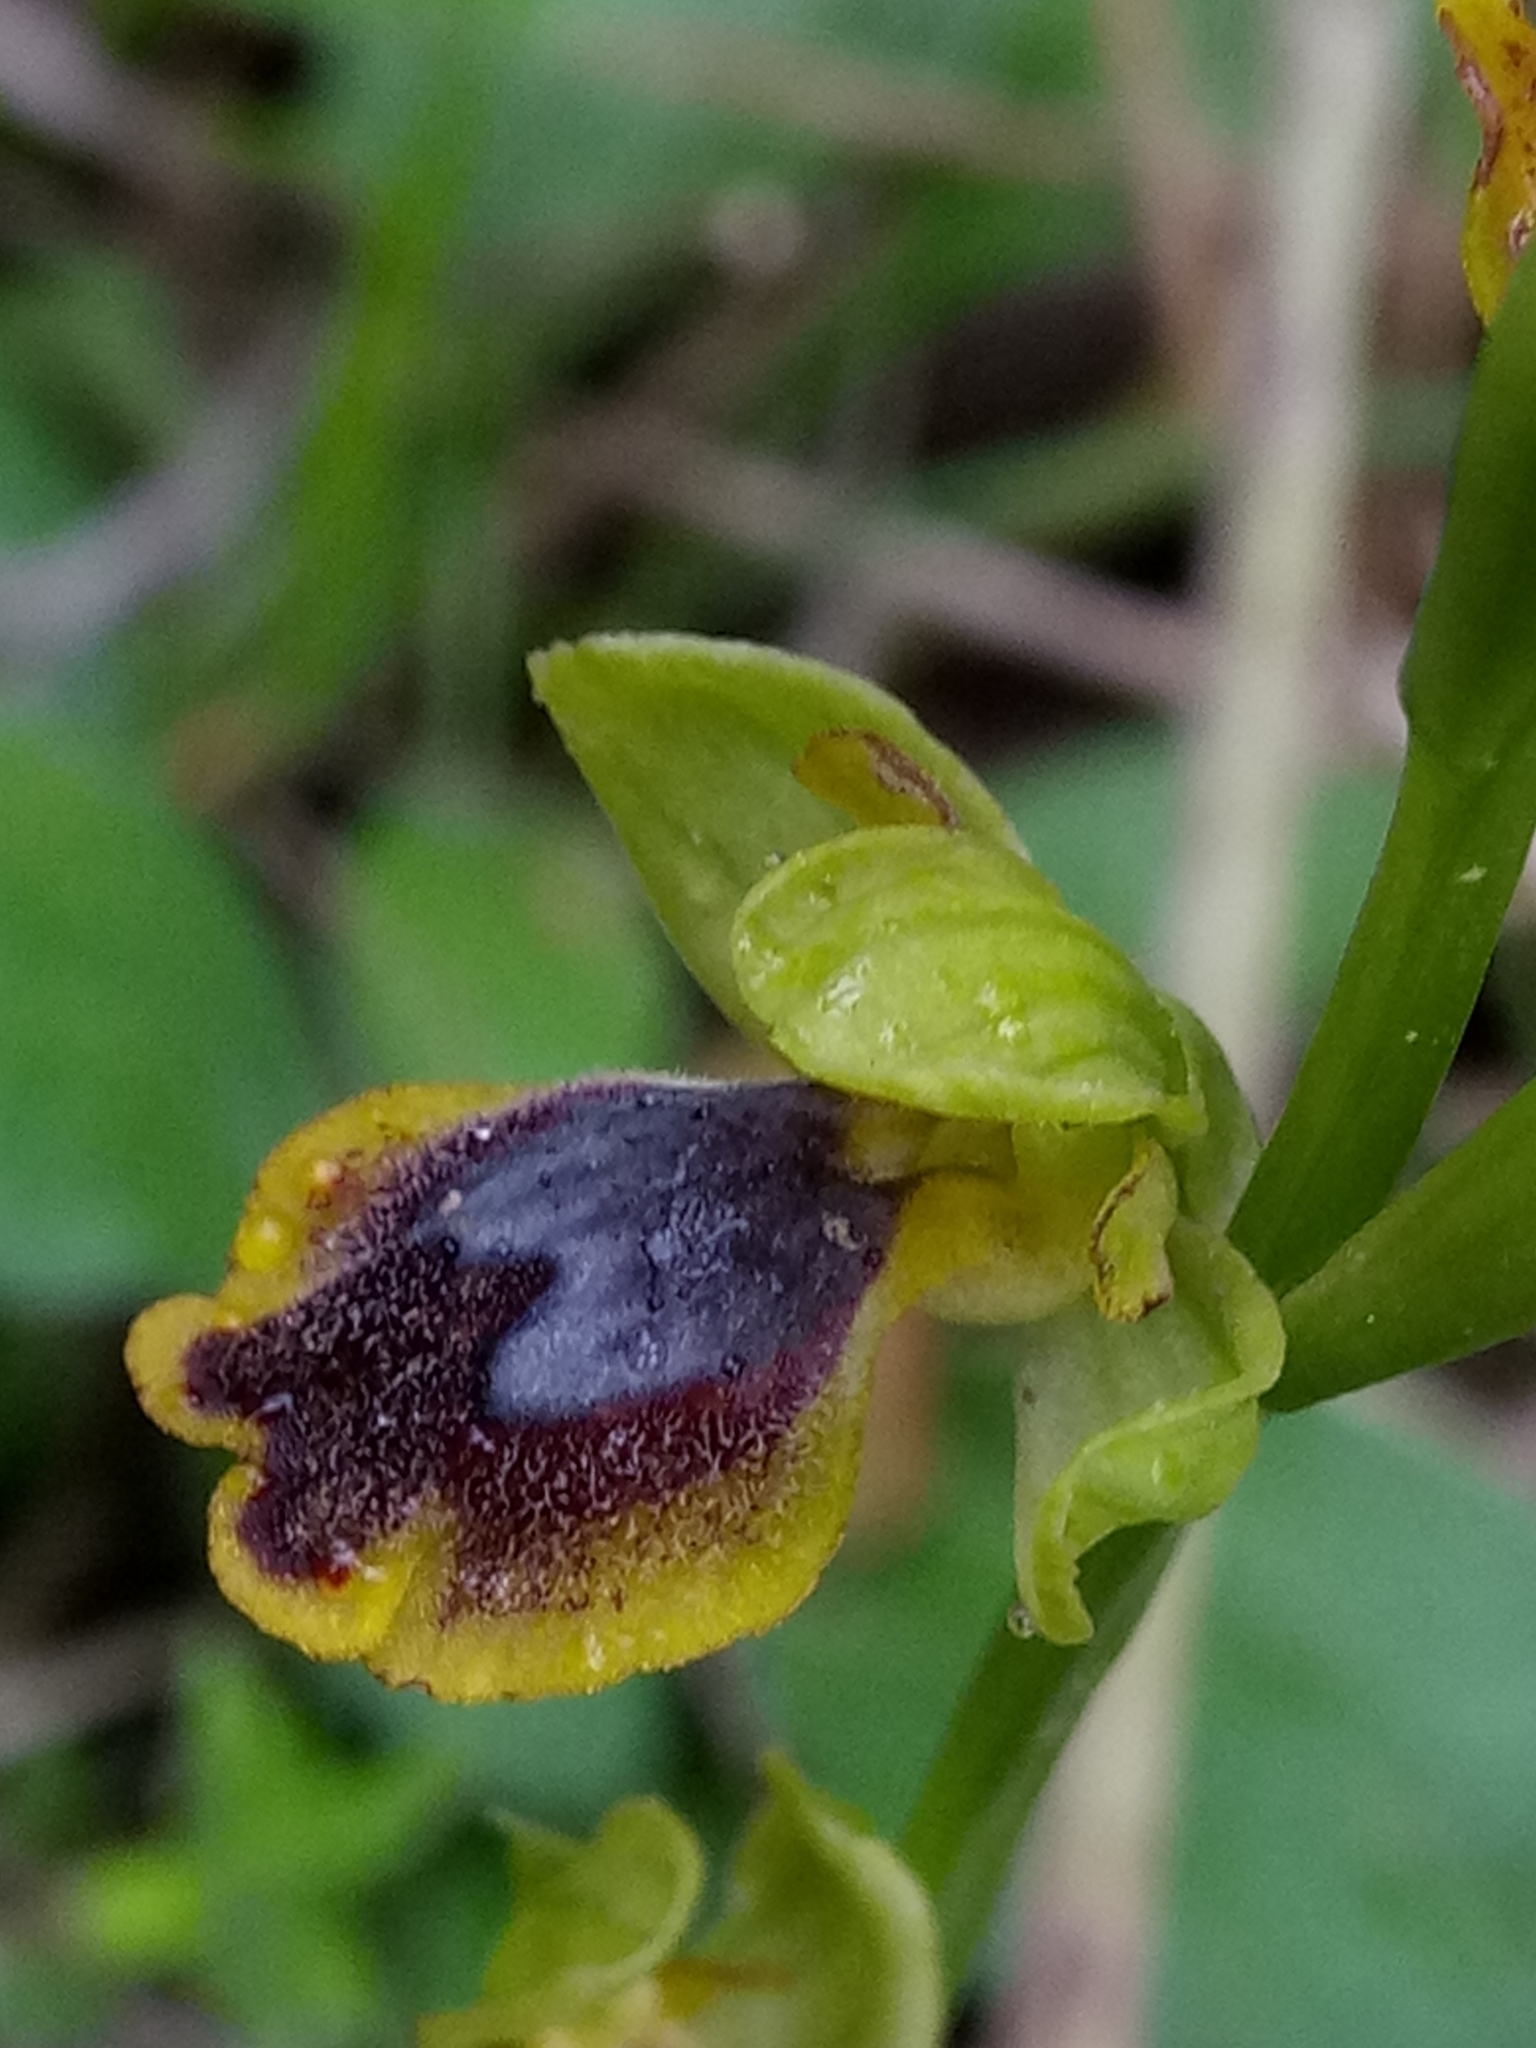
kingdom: Plantae
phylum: Tracheophyta
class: Liliopsida
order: Asparagales
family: Orchidaceae
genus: Ophrys
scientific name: Ophrys battandieri
